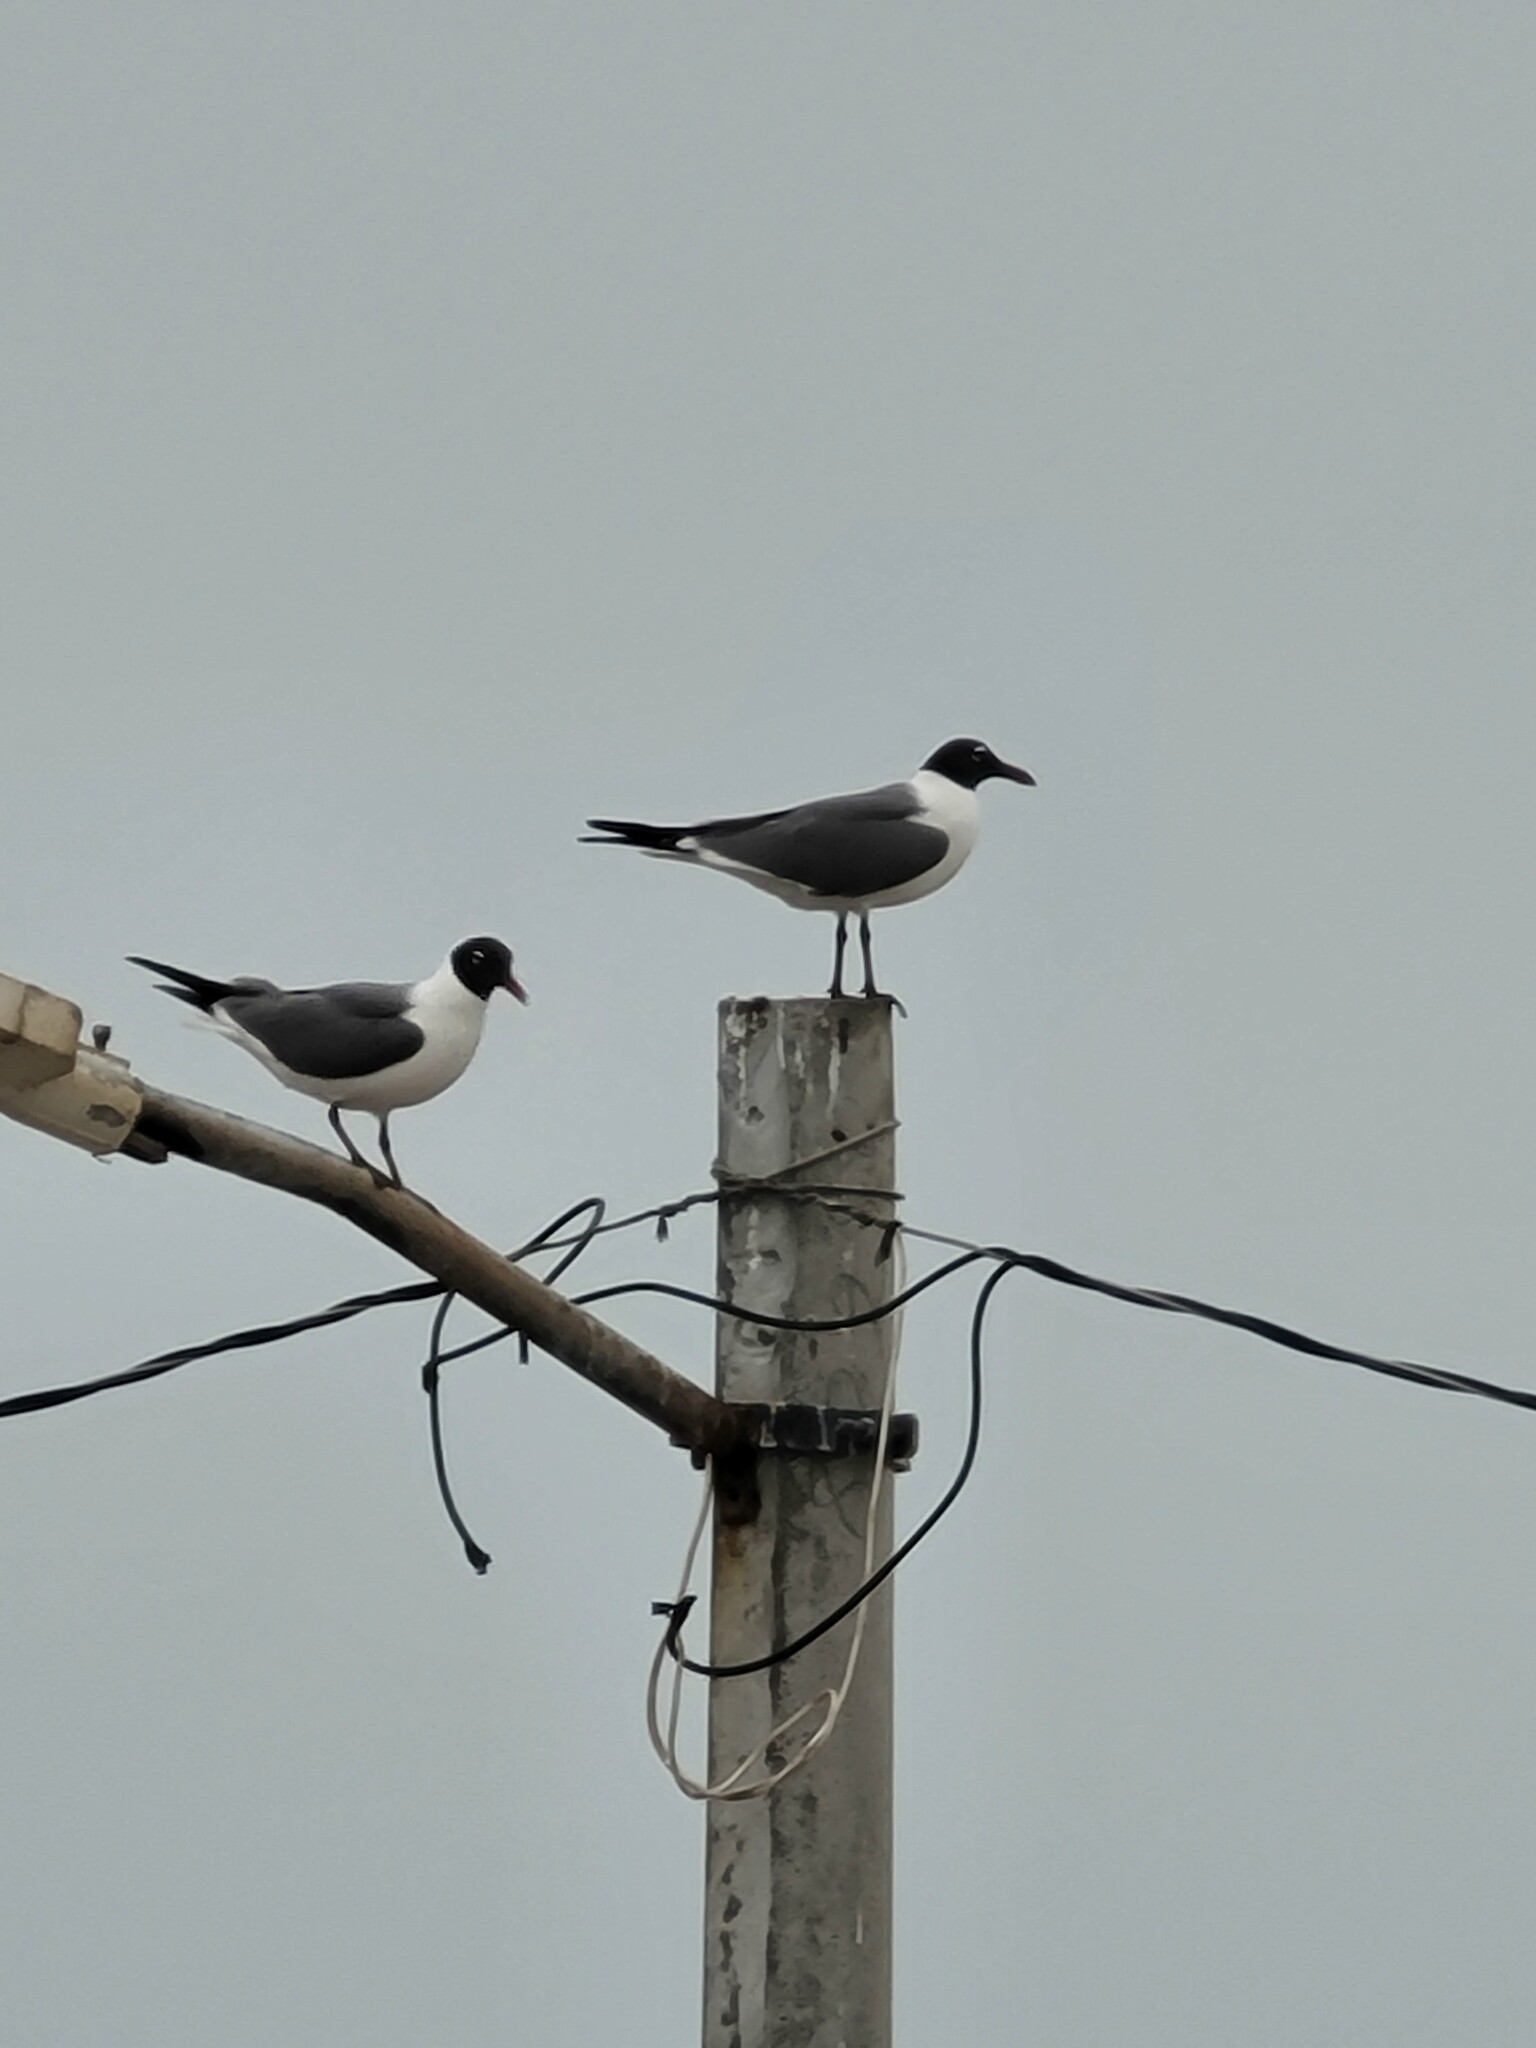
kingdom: Animalia
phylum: Chordata
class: Aves
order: Charadriiformes
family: Laridae
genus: Leucophaeus
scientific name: Leucophaeus atricilla
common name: Laughing gull
